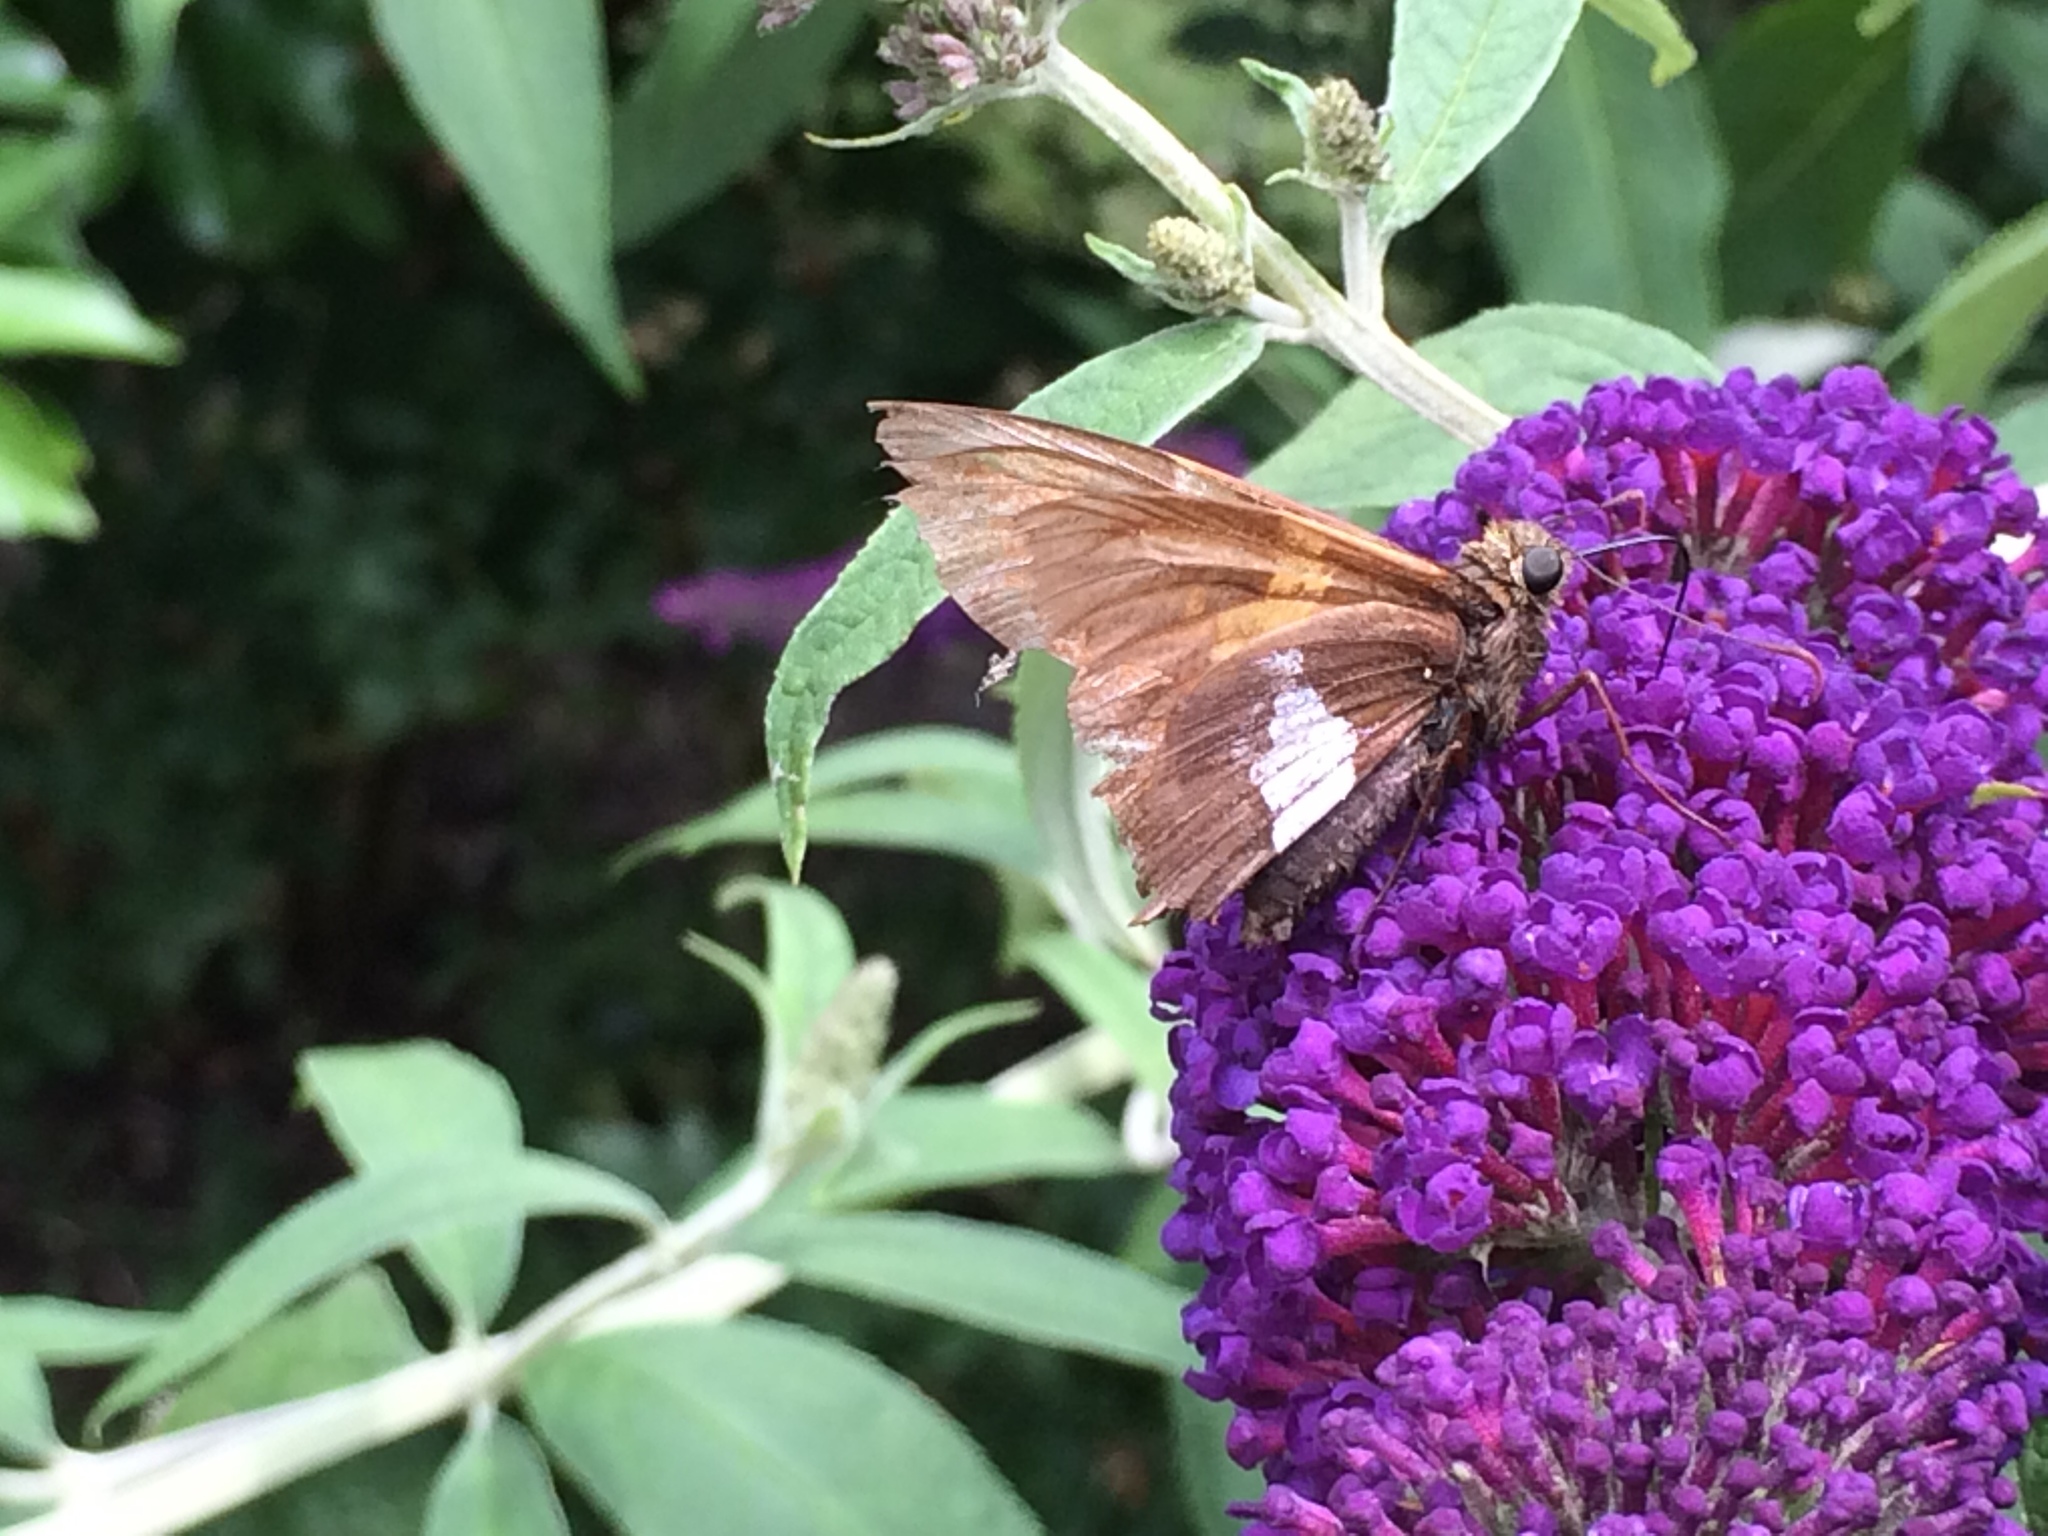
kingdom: Animalia
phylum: Arthropoda
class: Insecta
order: Lepidoptera
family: Hesperiidae
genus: Epargyreus
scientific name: Epargyreus clarus
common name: Silver-spotted skipper
